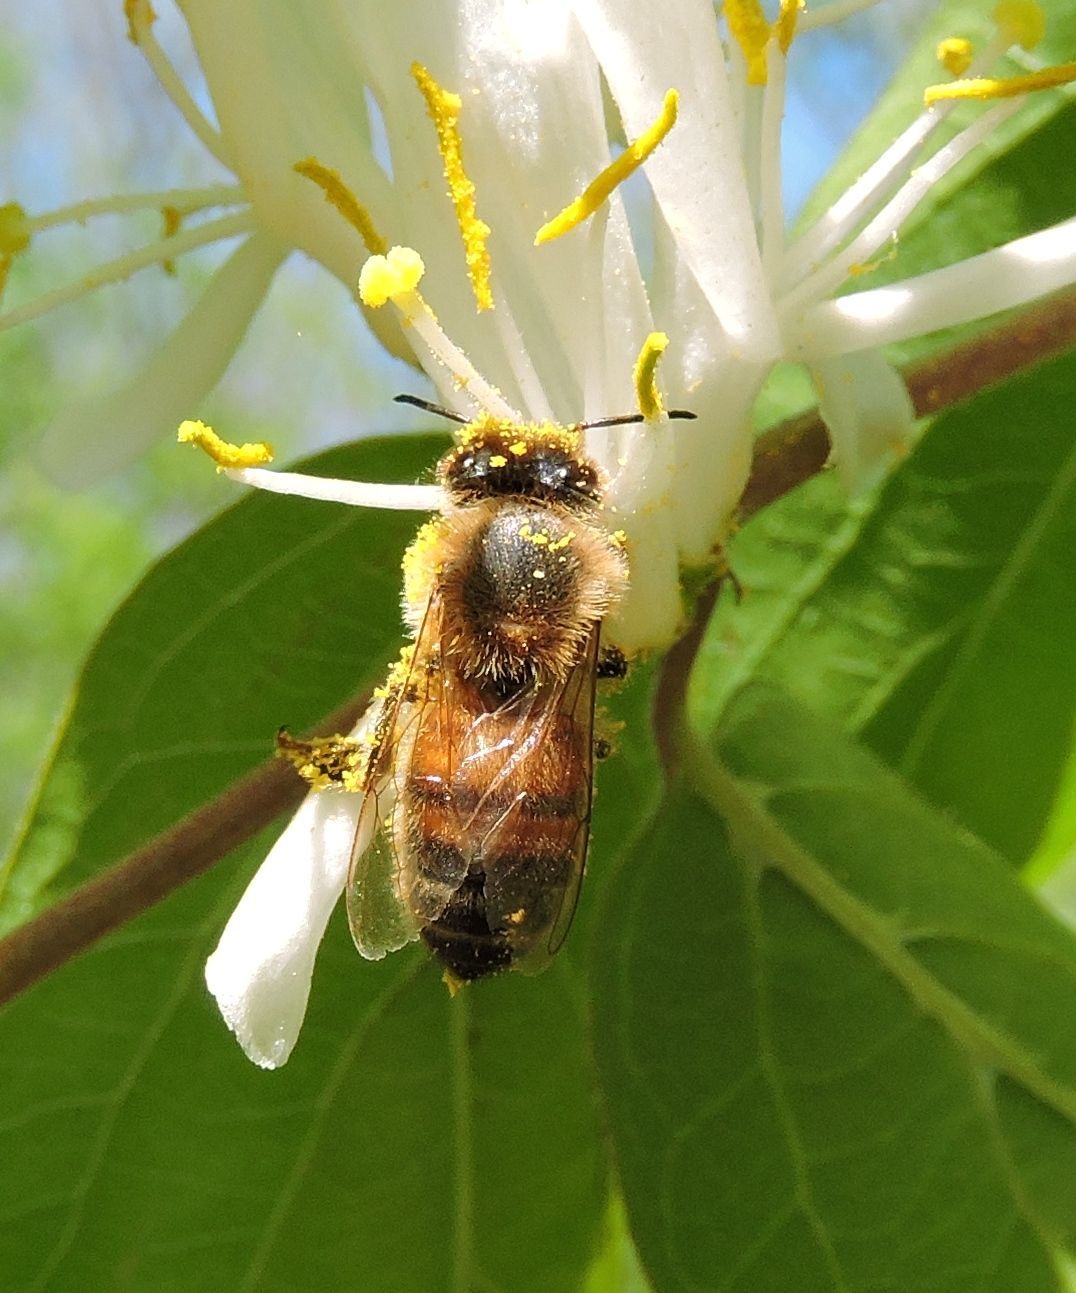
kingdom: Animalia
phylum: Arthropoda
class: Insecta
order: Hymenoptera
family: Apidae
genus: Apis
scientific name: Apis mellifera
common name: Honey bee
